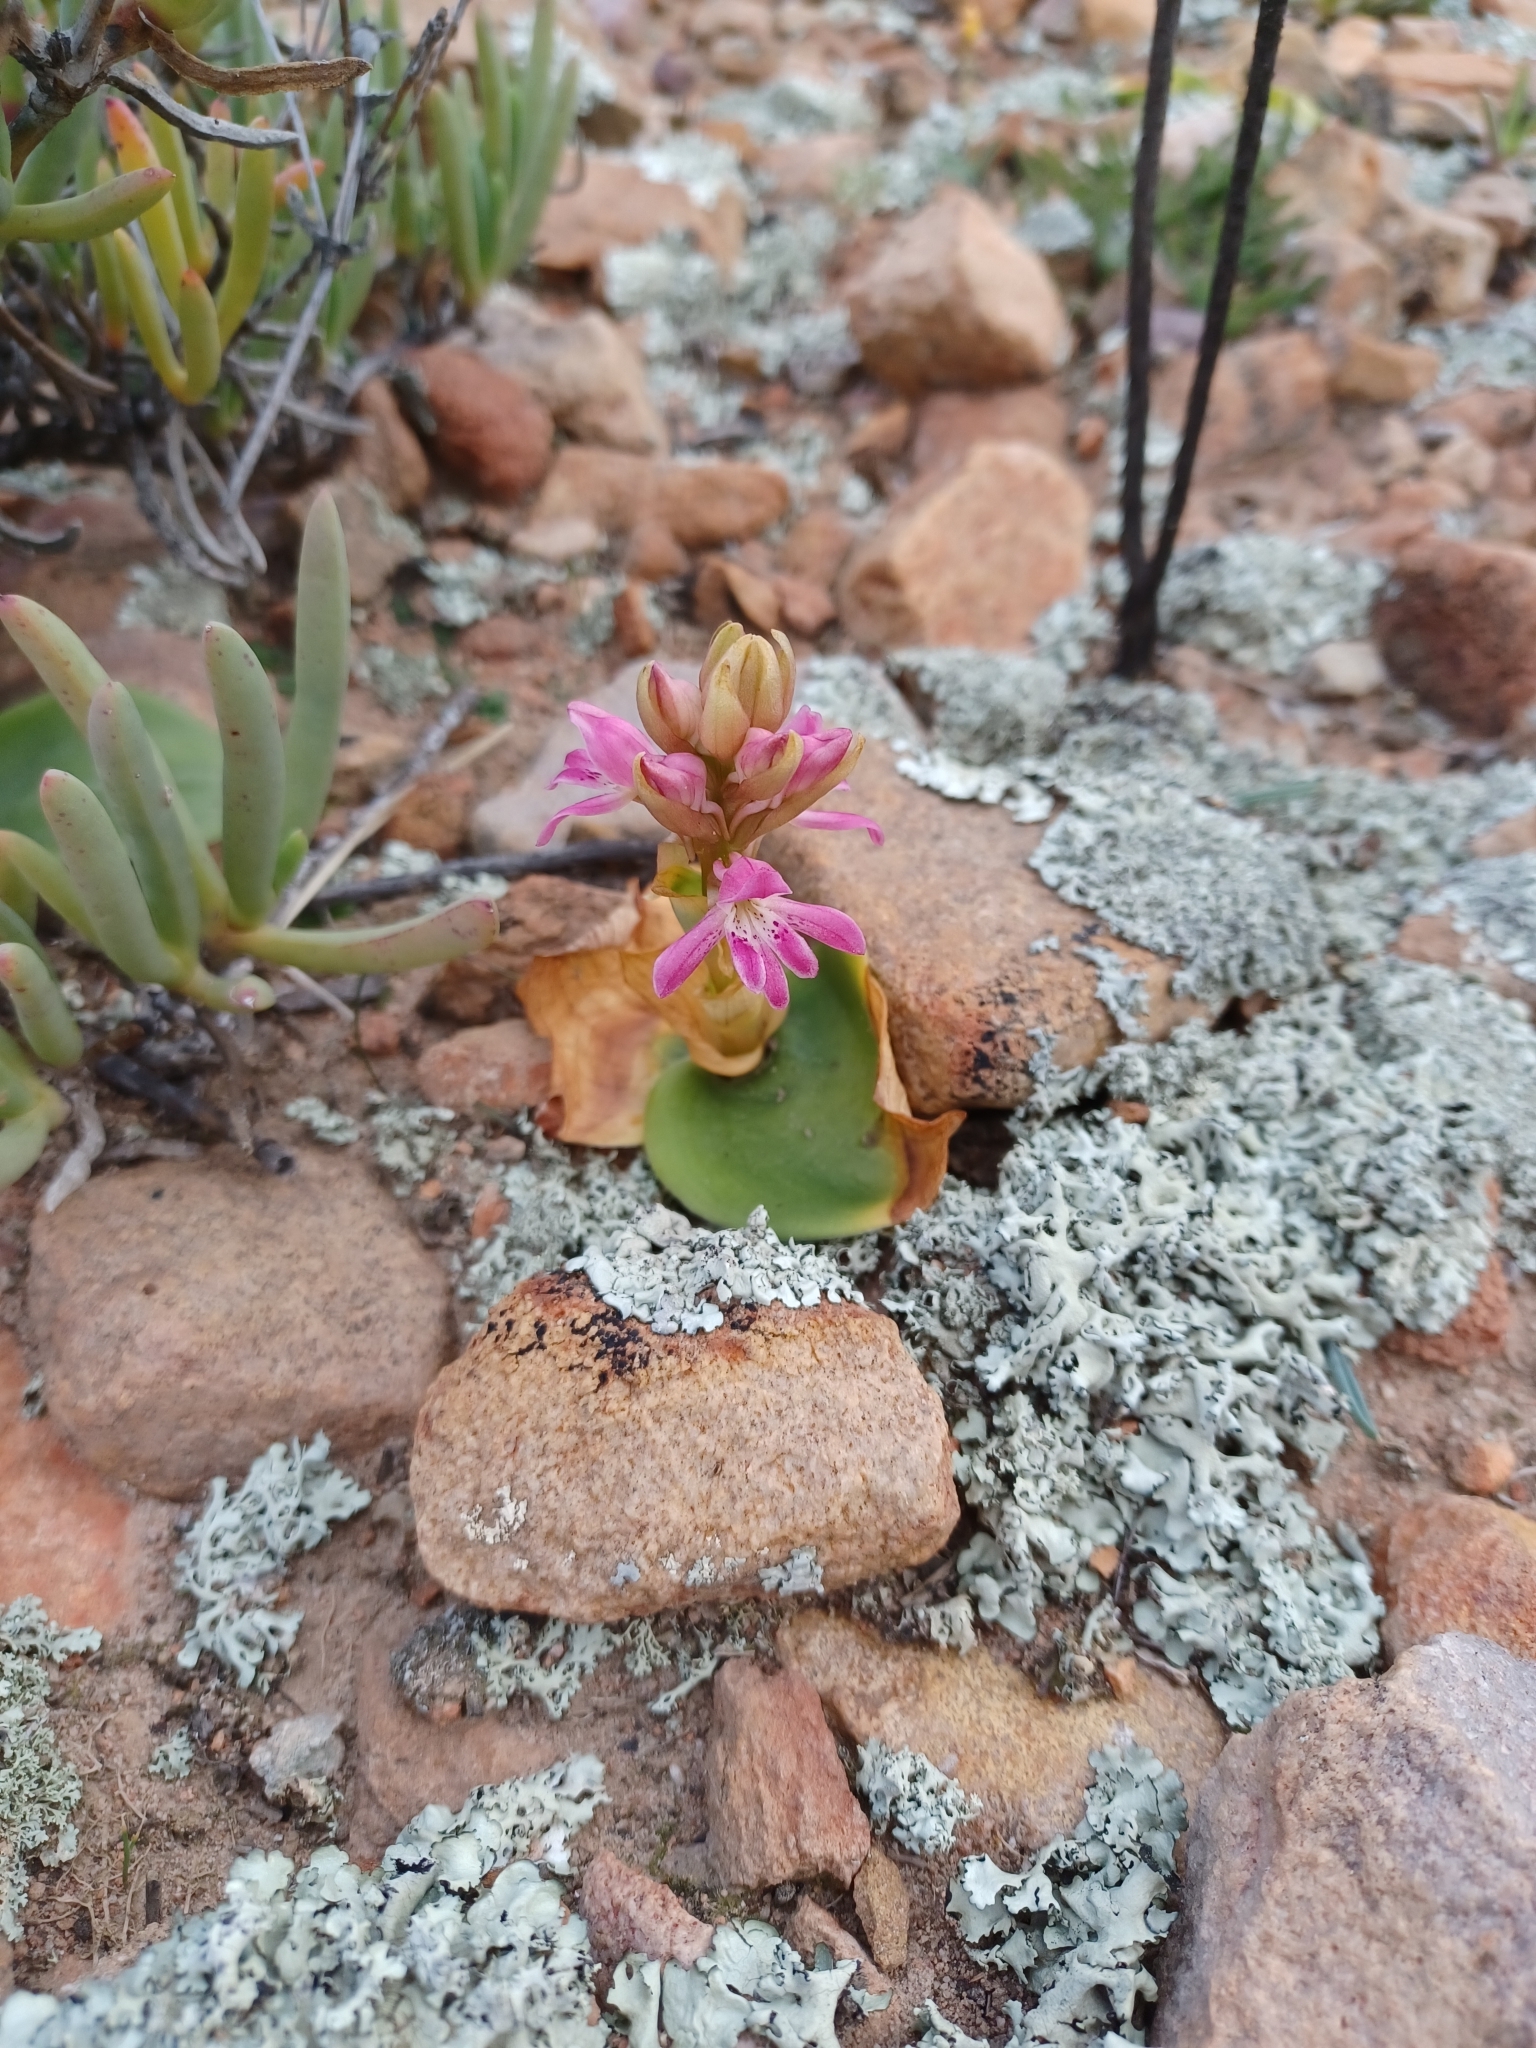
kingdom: Plantae
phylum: Tracheophyta
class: Liliopsida
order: Asparagales
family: Orchidaceae
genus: Satyrium
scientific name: Satyrium erectum
